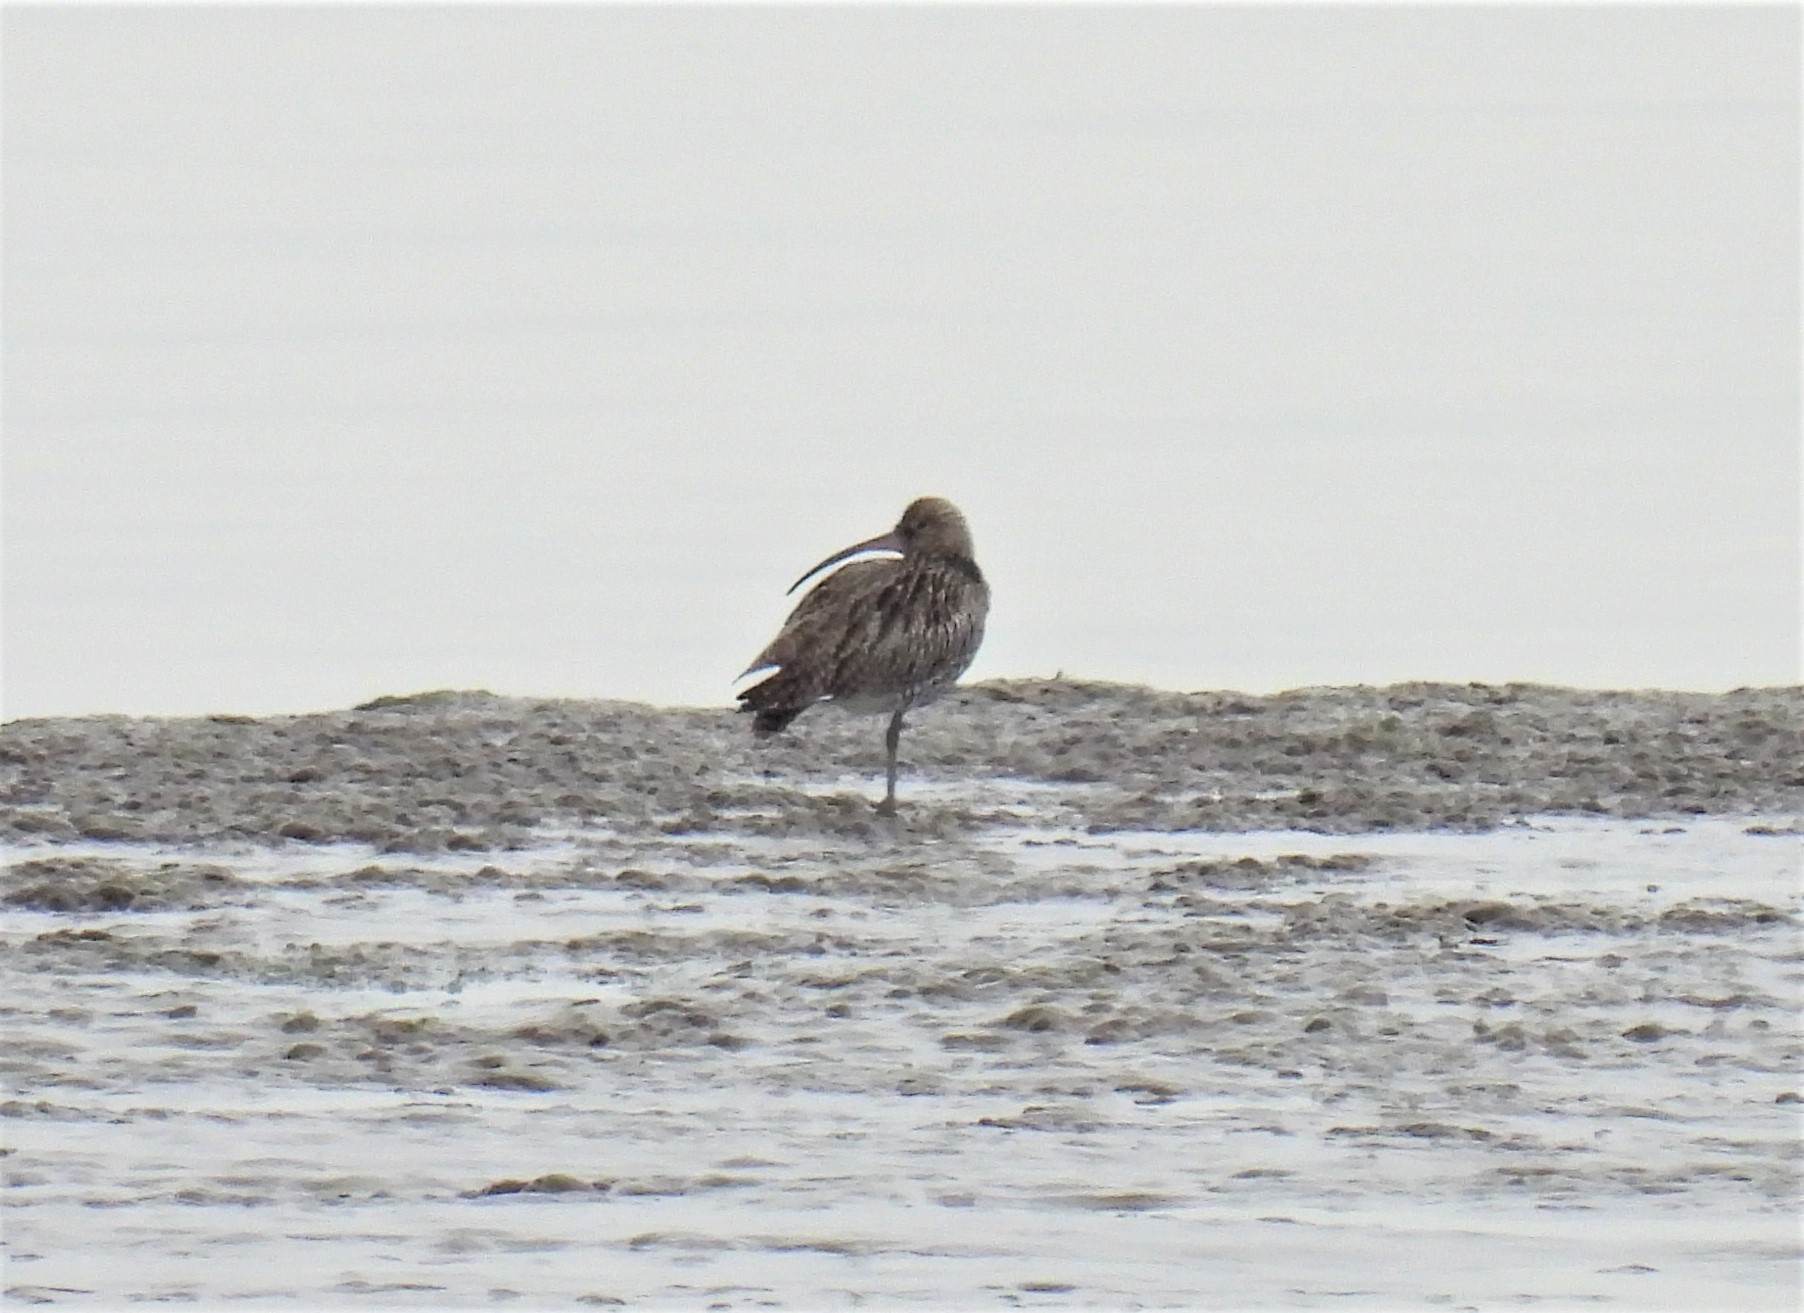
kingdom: Animalia
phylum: Chordata
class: Aves
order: Charadriiformes
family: Scolopacidae
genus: Numenius
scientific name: Numenius arquata
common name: Eurasian curlew
